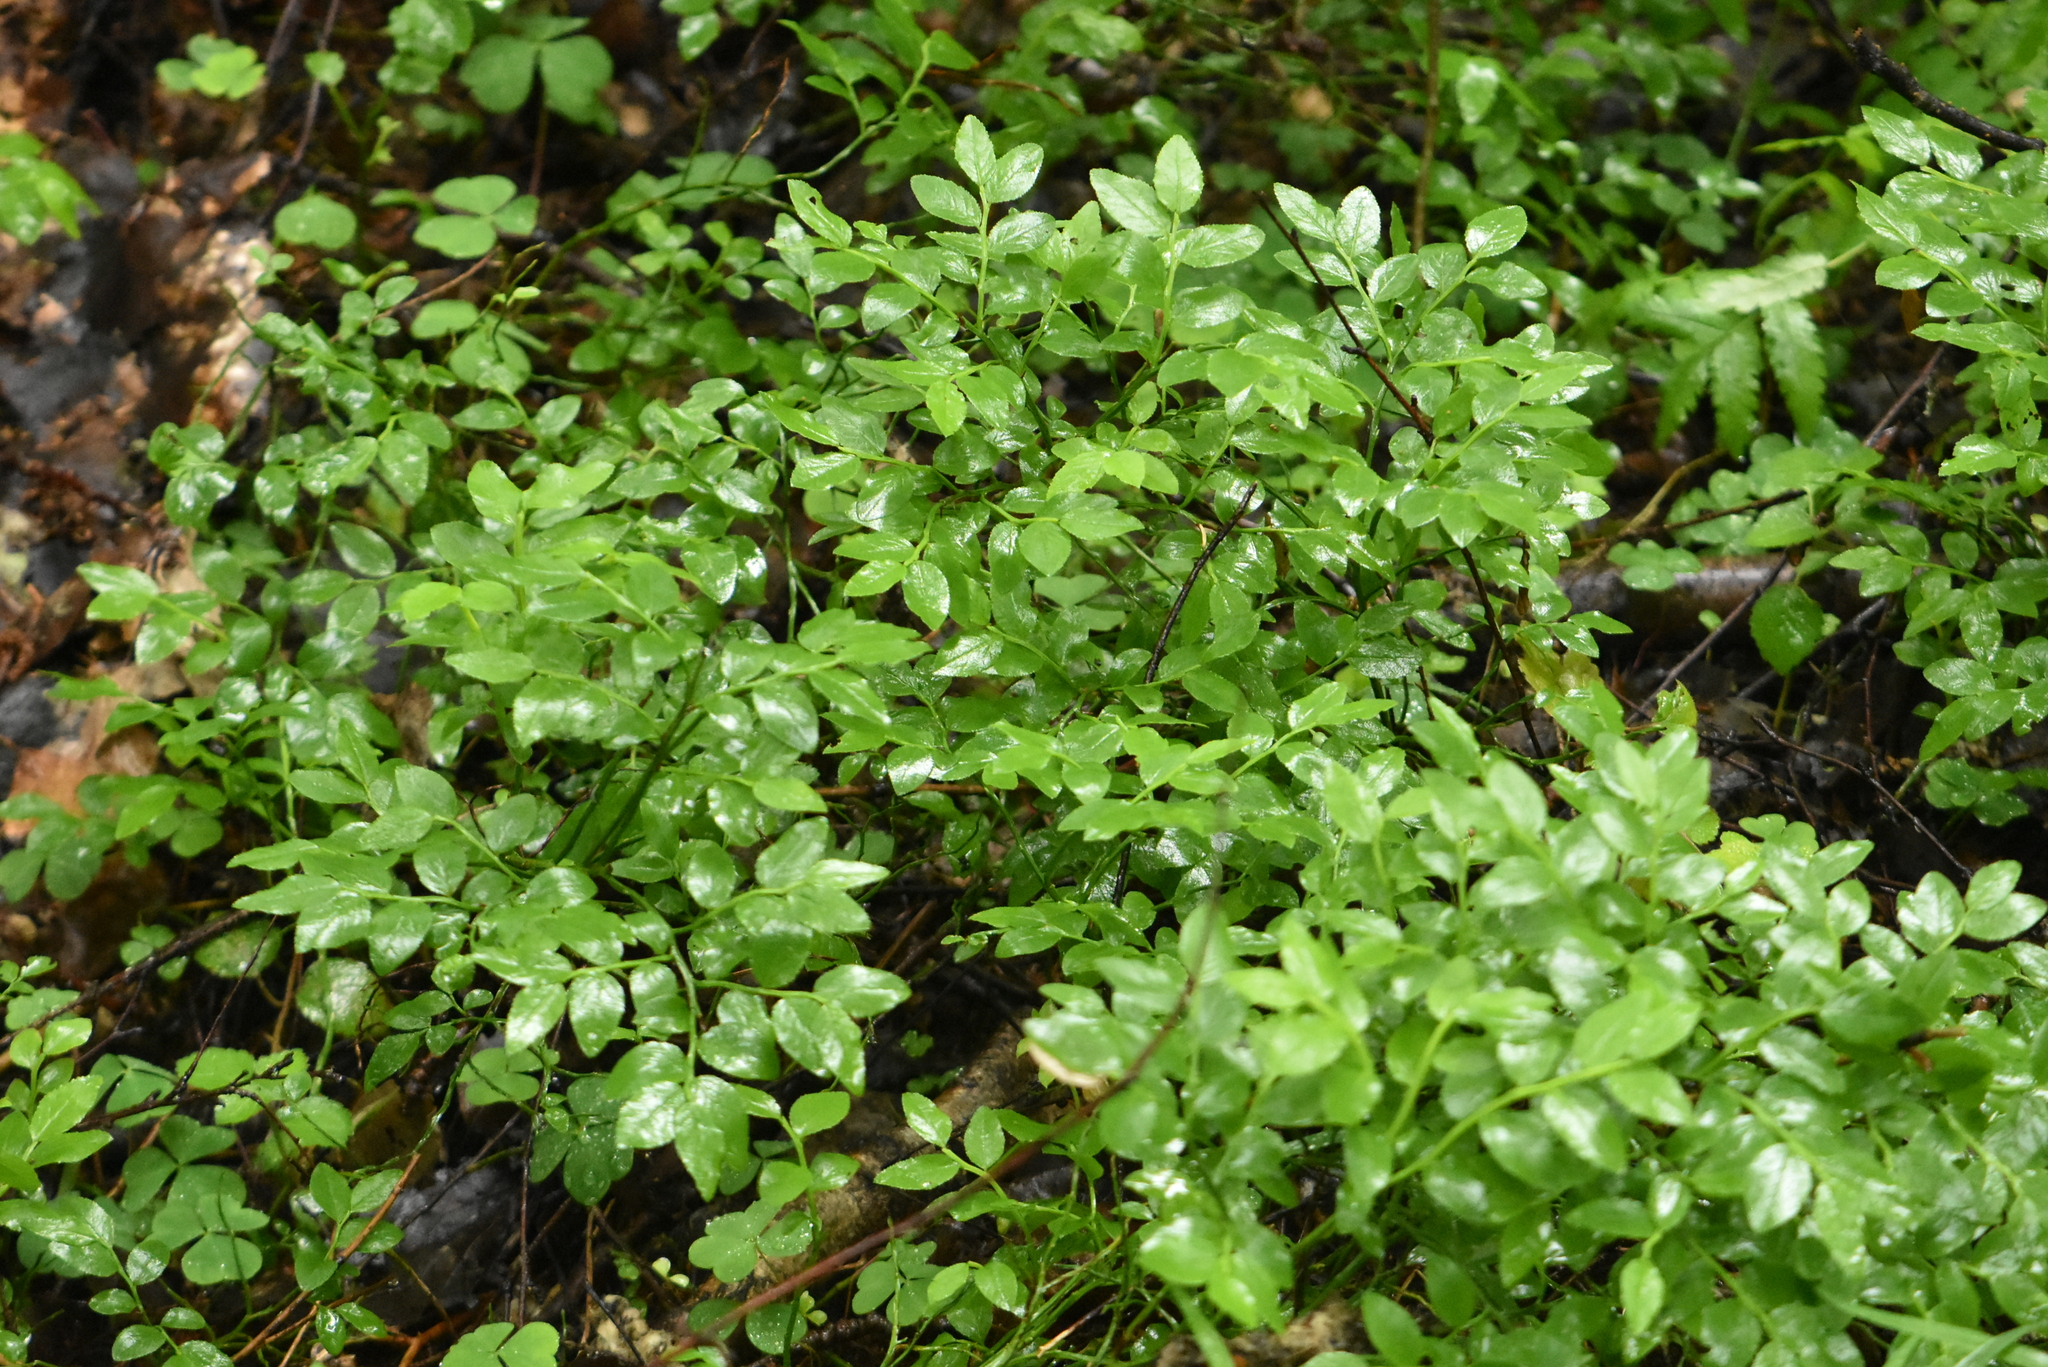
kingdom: Plantae
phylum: Tracheophyta
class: Magnoliopsida
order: Ericales
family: Ericaceae
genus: Vaccinium
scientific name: Vaccinium myrtillus
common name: Bilberry
